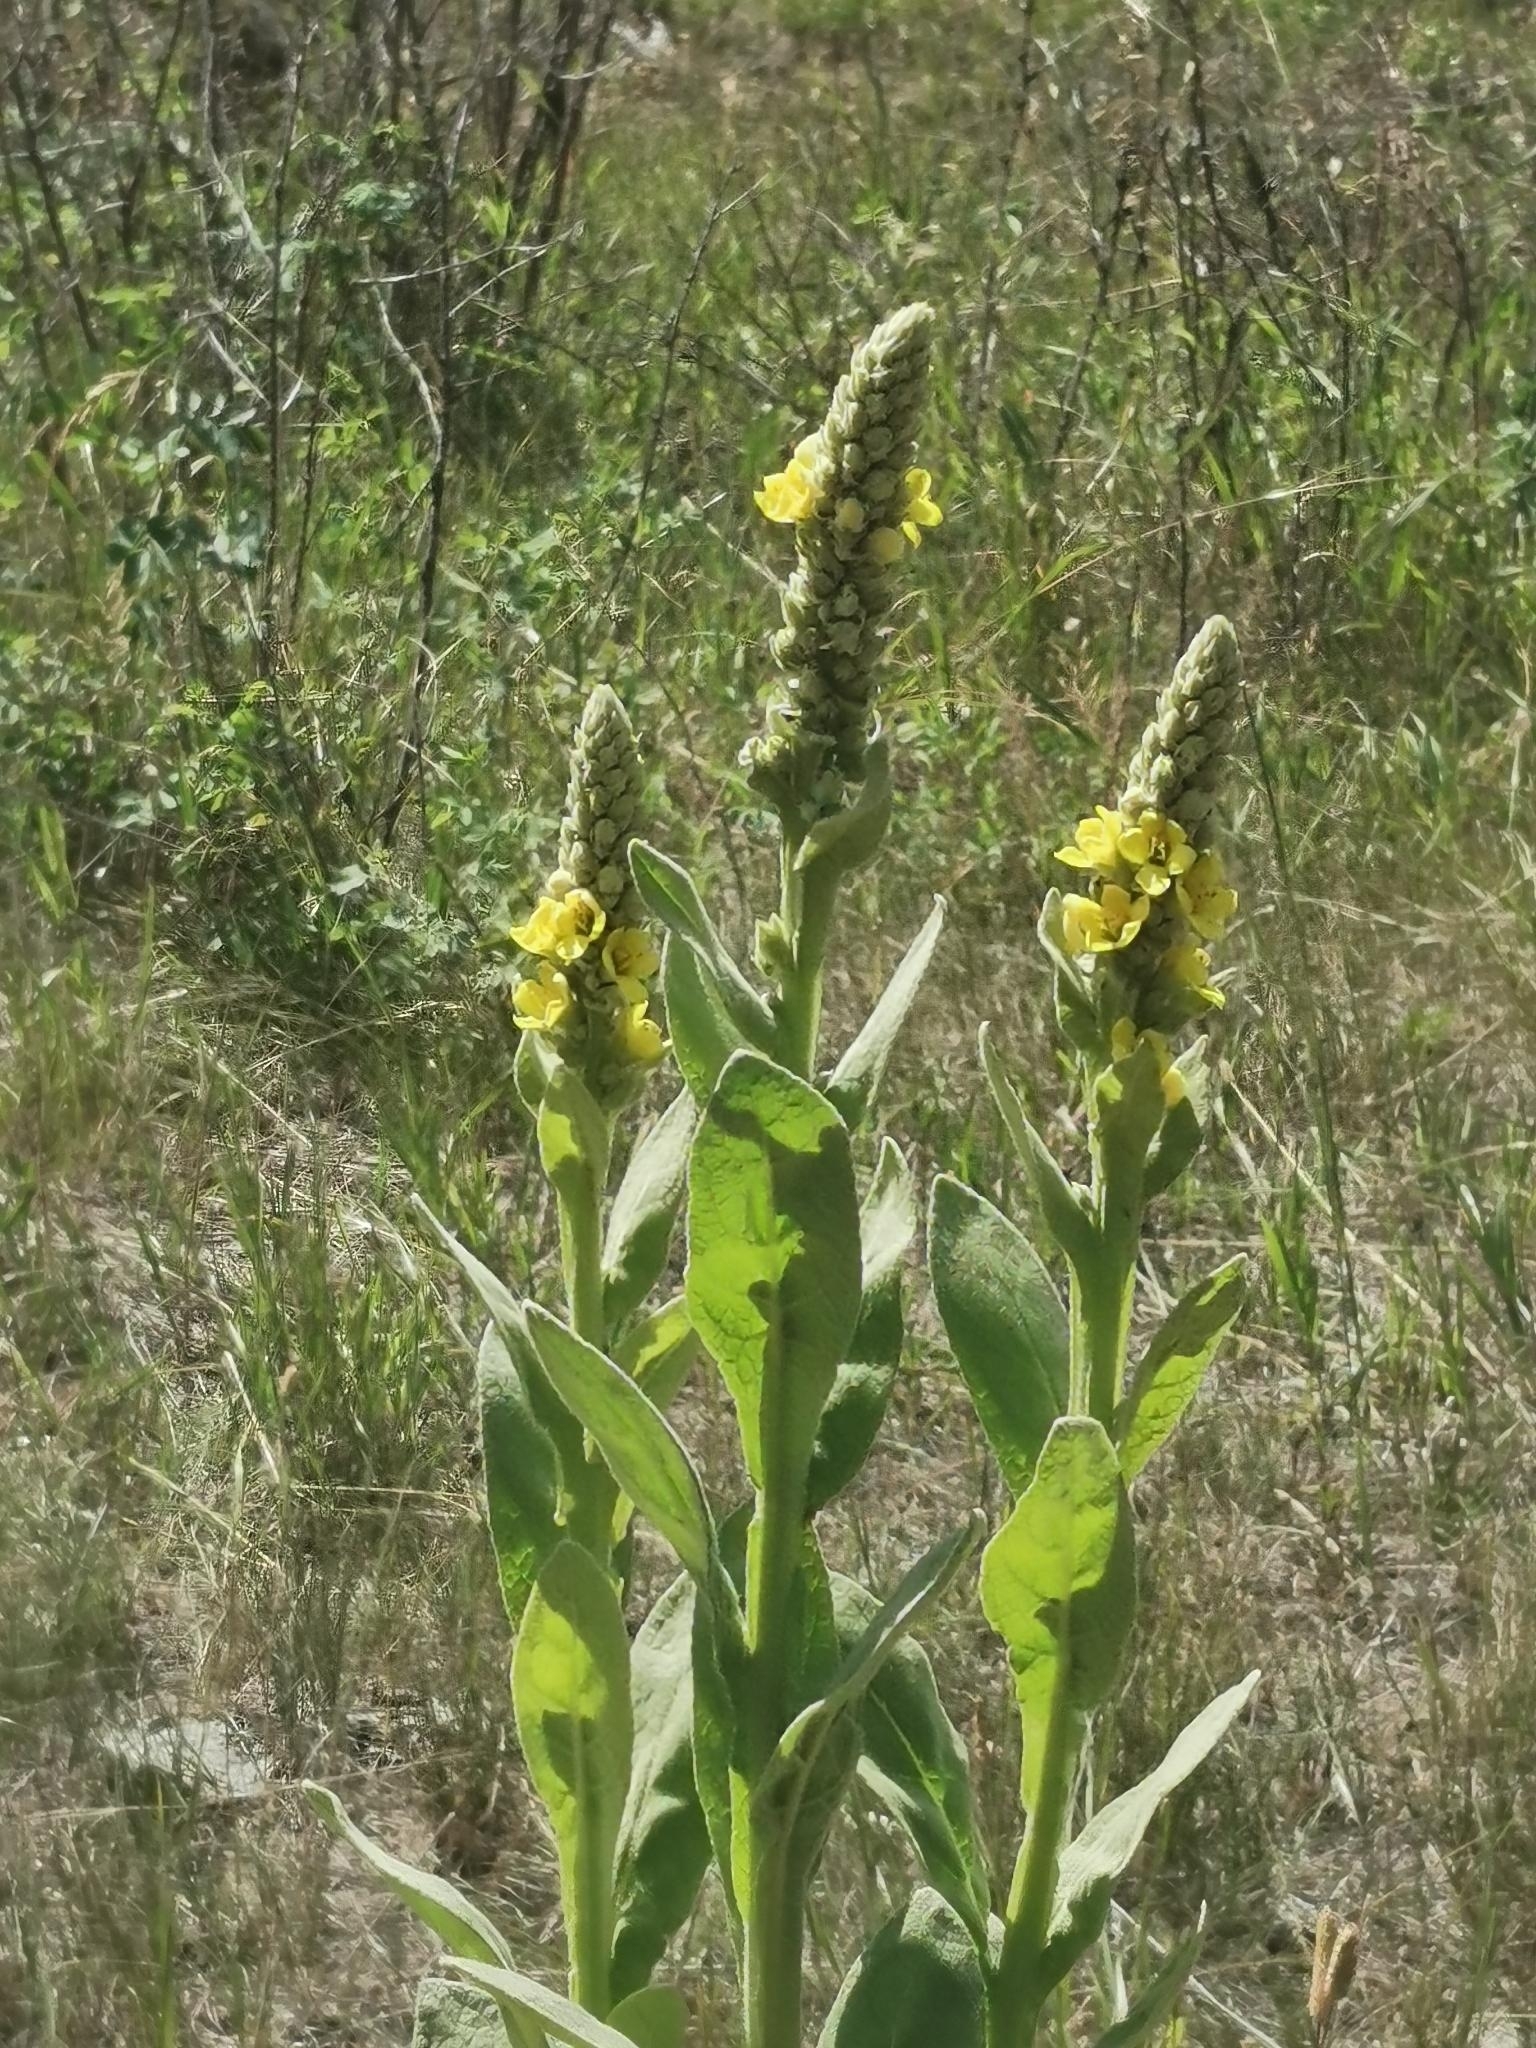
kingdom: Plantae
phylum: Tracheophyta
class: Magnoliopsida
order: Lamiales
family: Scrophulariaceae
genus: Verbascum
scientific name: Verbascum thapsus
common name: Common mullein
